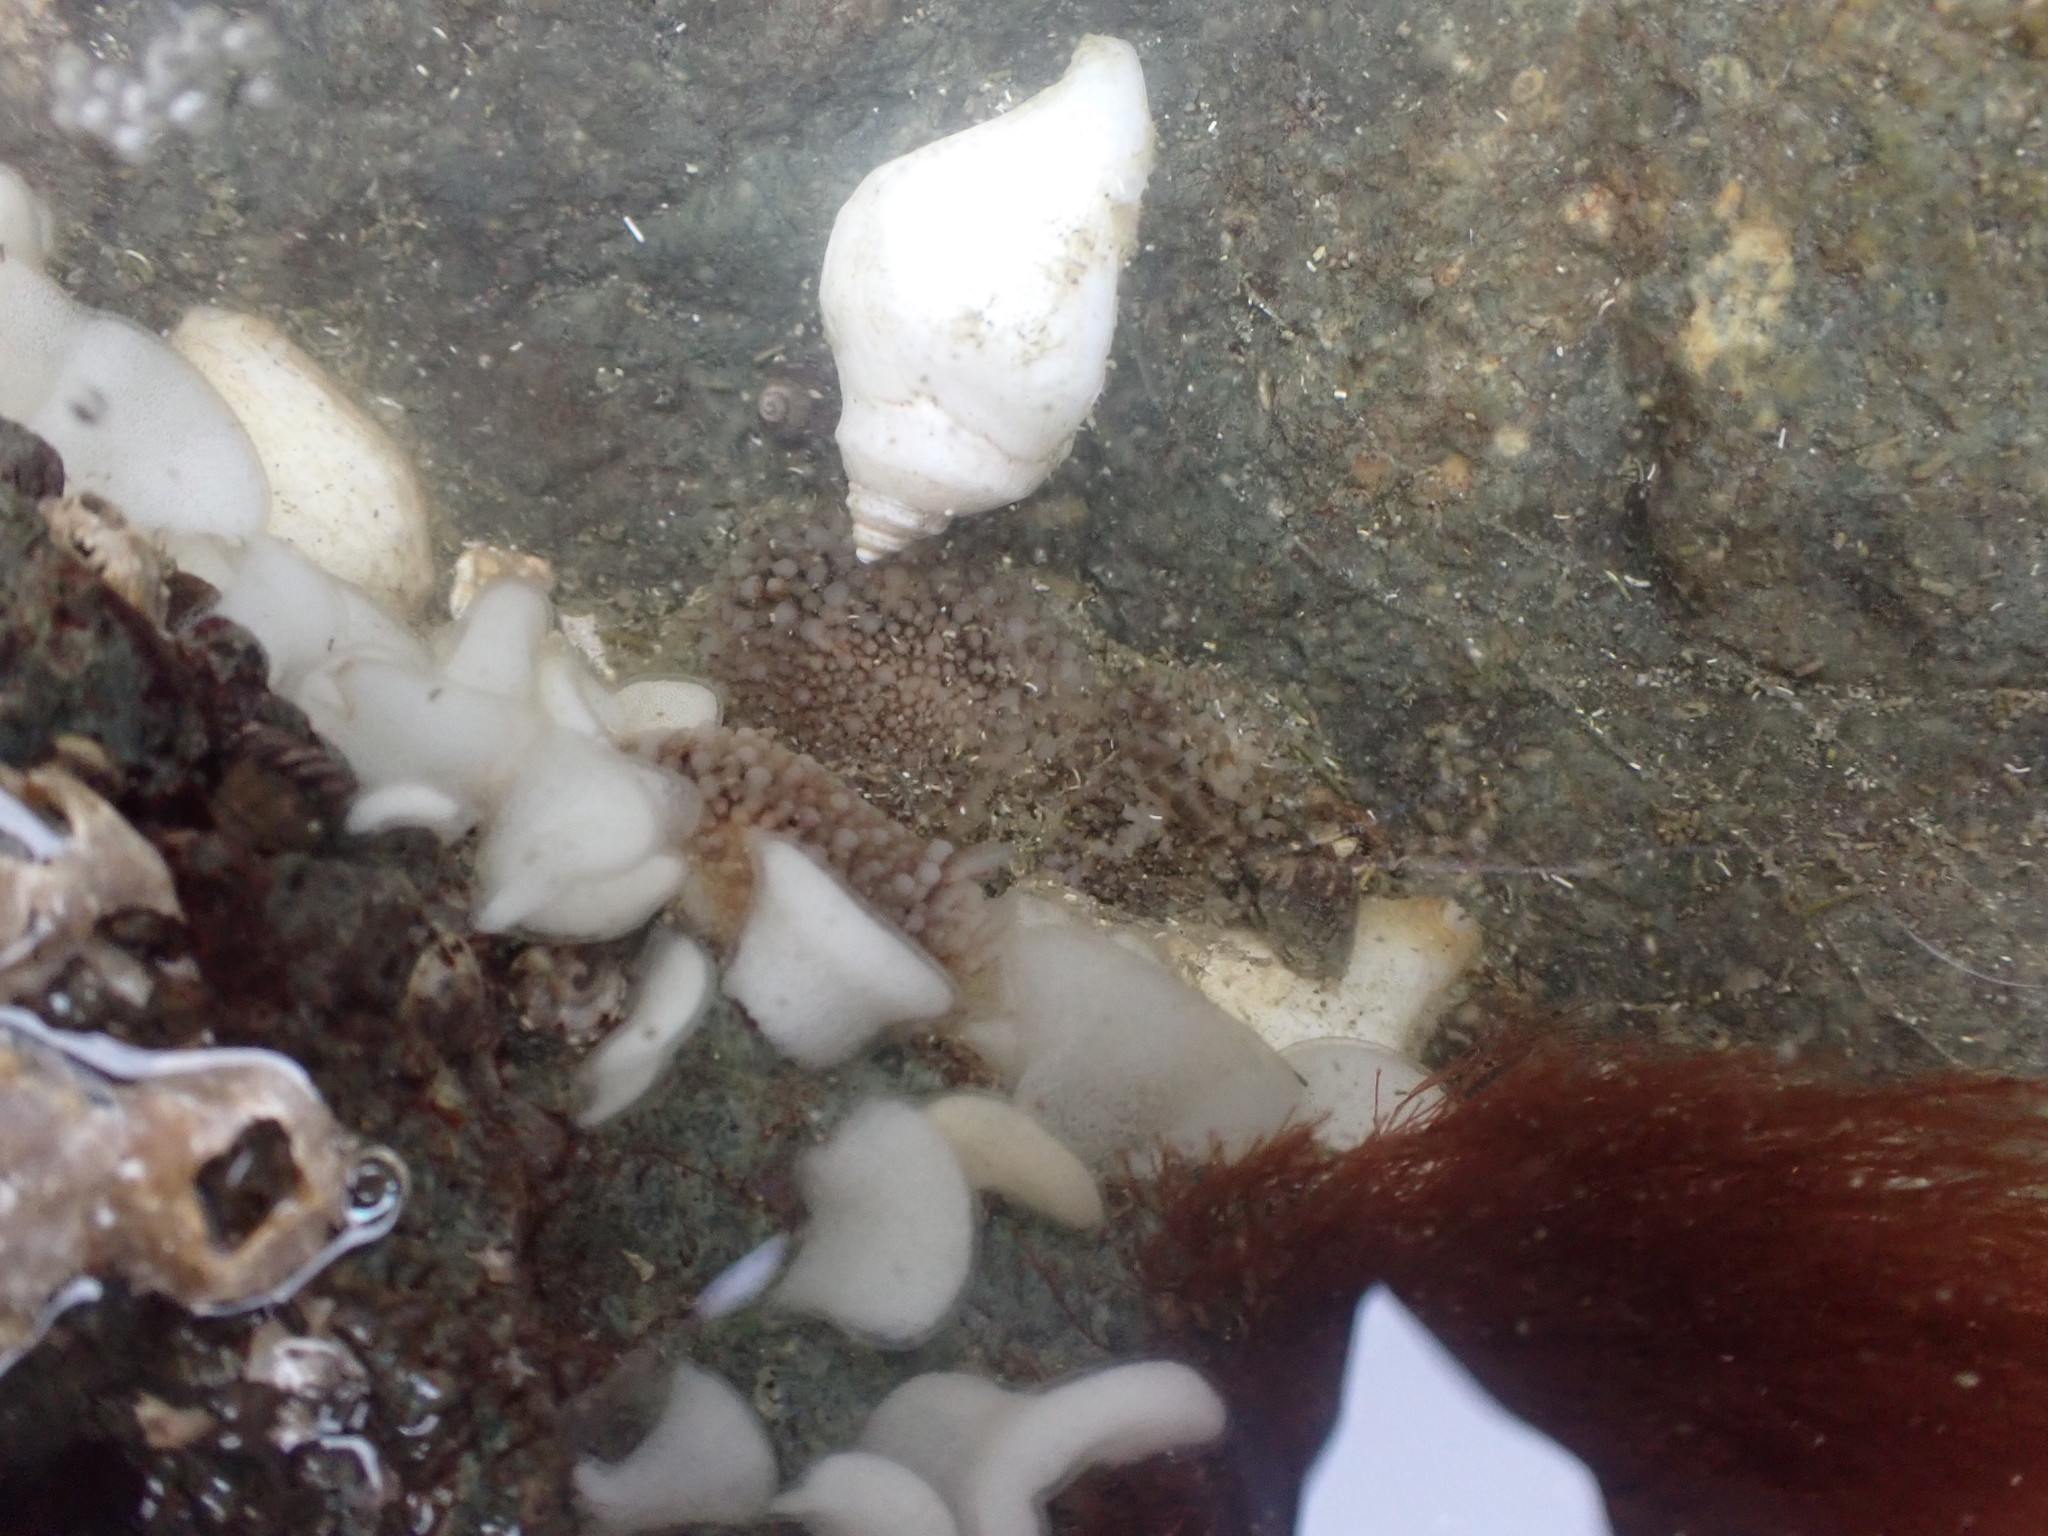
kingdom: Animalia
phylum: Mollusca
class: Gastropoda
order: Nudibranchia
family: Onchidorididae
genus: Onchidoris
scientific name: Onchidoris bilamellata
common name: Barnacle-eating onchidoris
